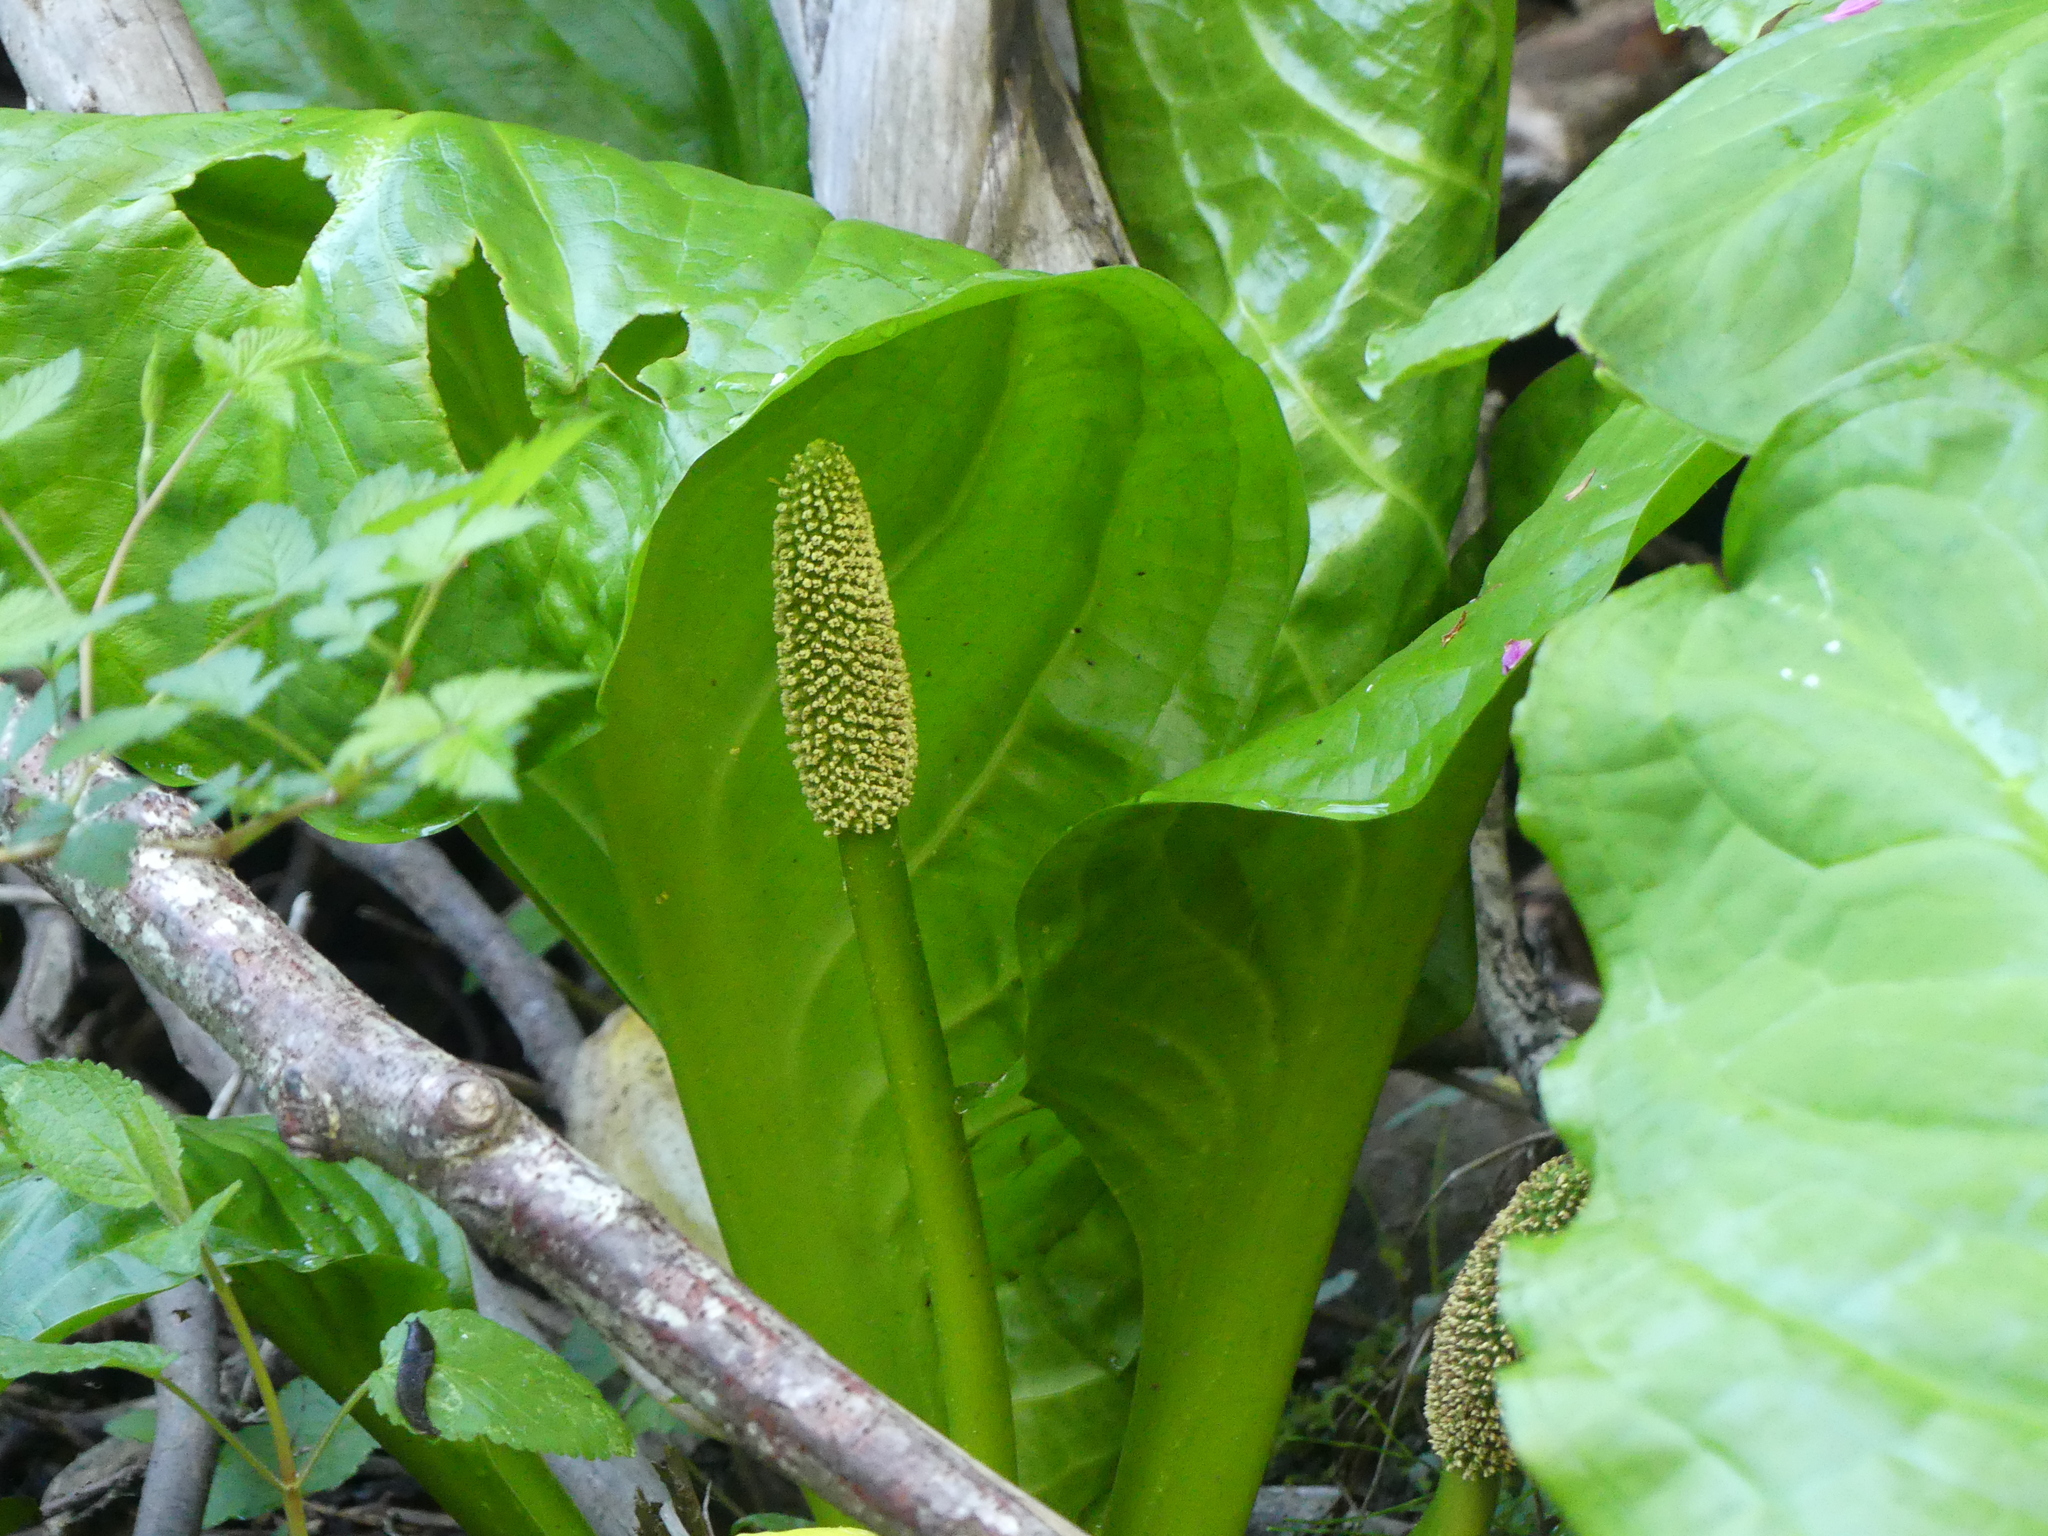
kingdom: Plantae
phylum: Tracheophyta
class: Liliopsida
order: Alismatales
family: Araceae
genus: Lysichiton
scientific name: Lysichiton americanus
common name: American skunk cabbage
